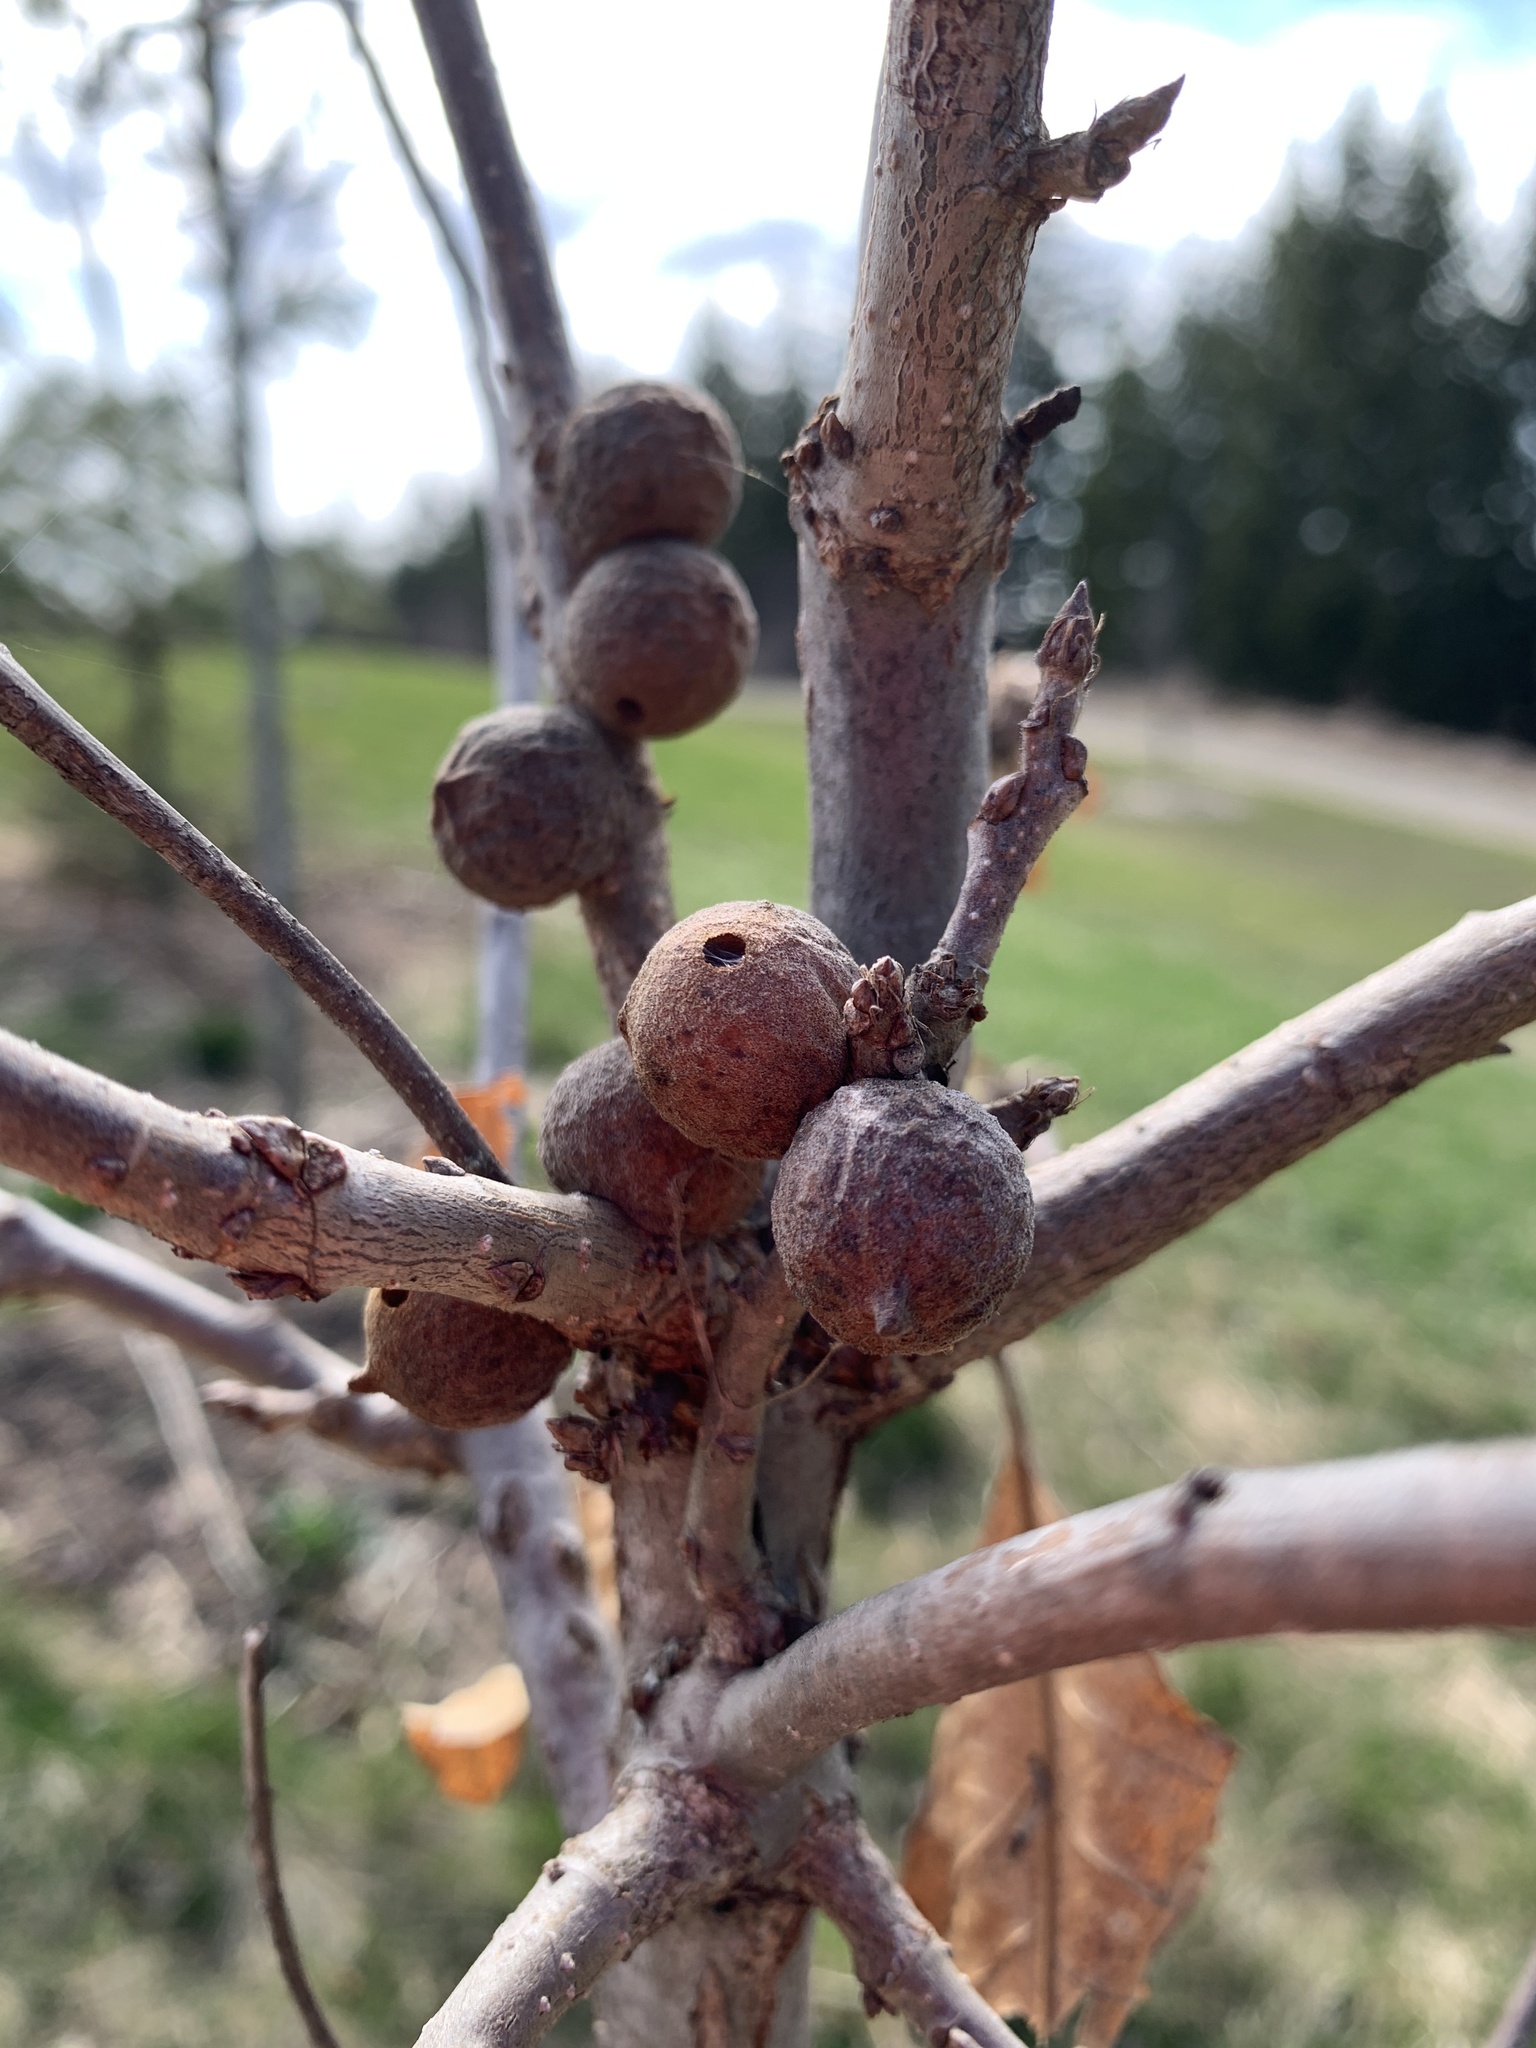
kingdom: Animalia
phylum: Arthropoda
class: Insecta
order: Hymenoptera
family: Cynipidae
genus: Disholcaspis
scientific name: Disholcaspis
